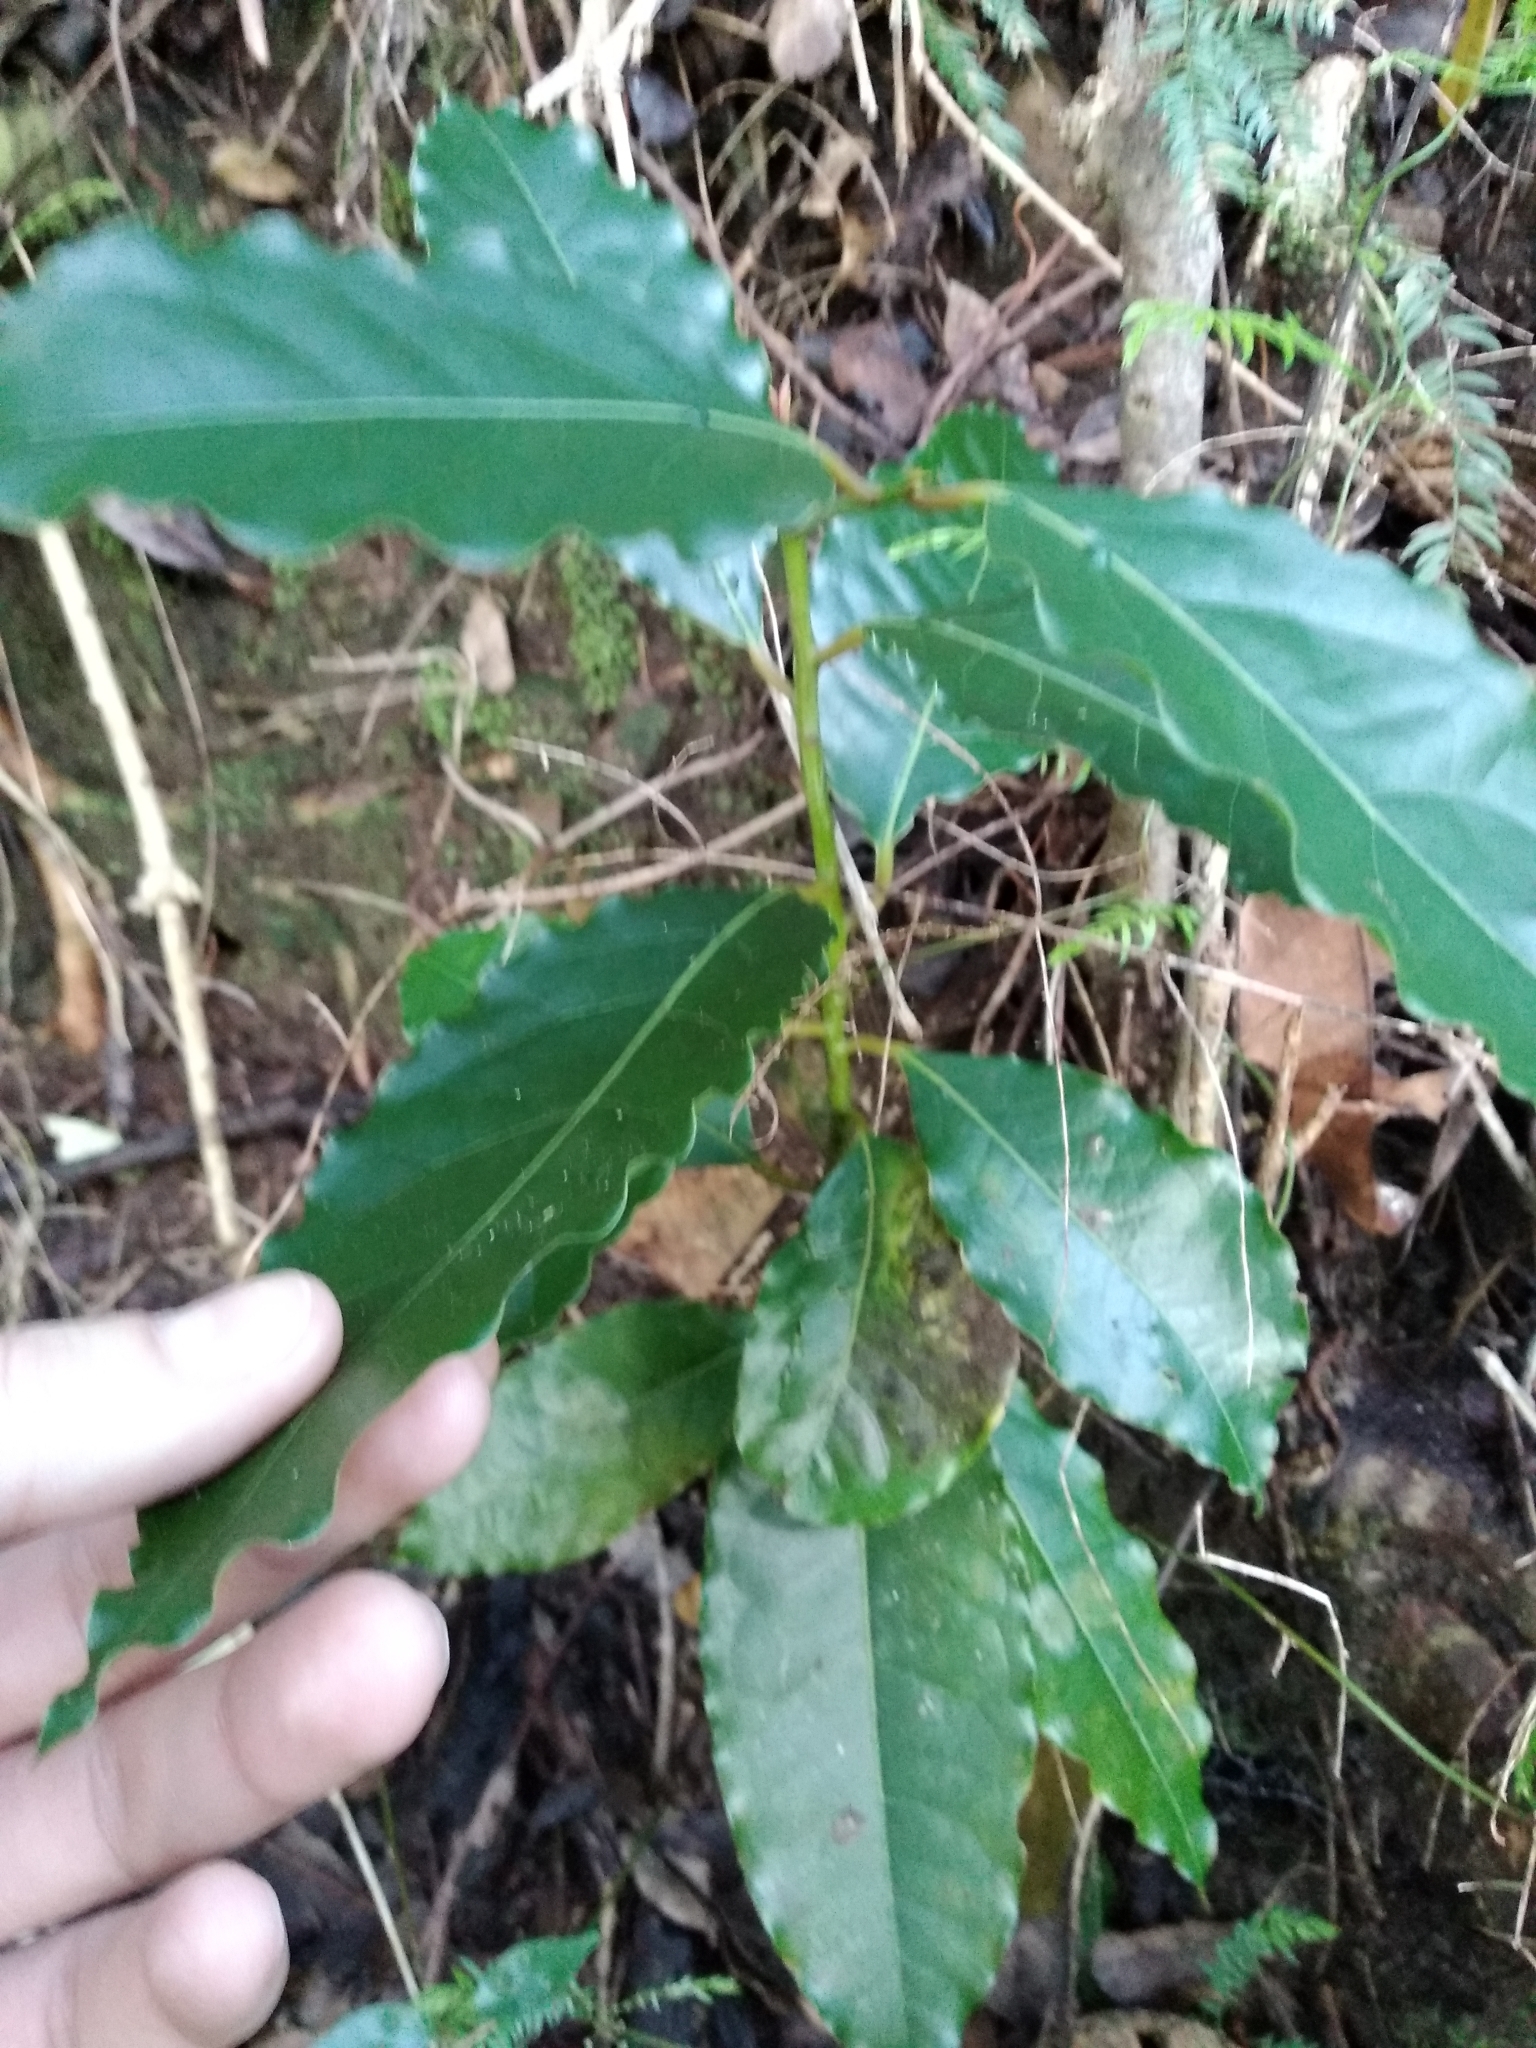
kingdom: Plantae
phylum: Tracheophyta
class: Magnoliopsida
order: Laurales
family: Lauraceae
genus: Ocotea
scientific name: Ocotea bullata
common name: Black stinkwood
